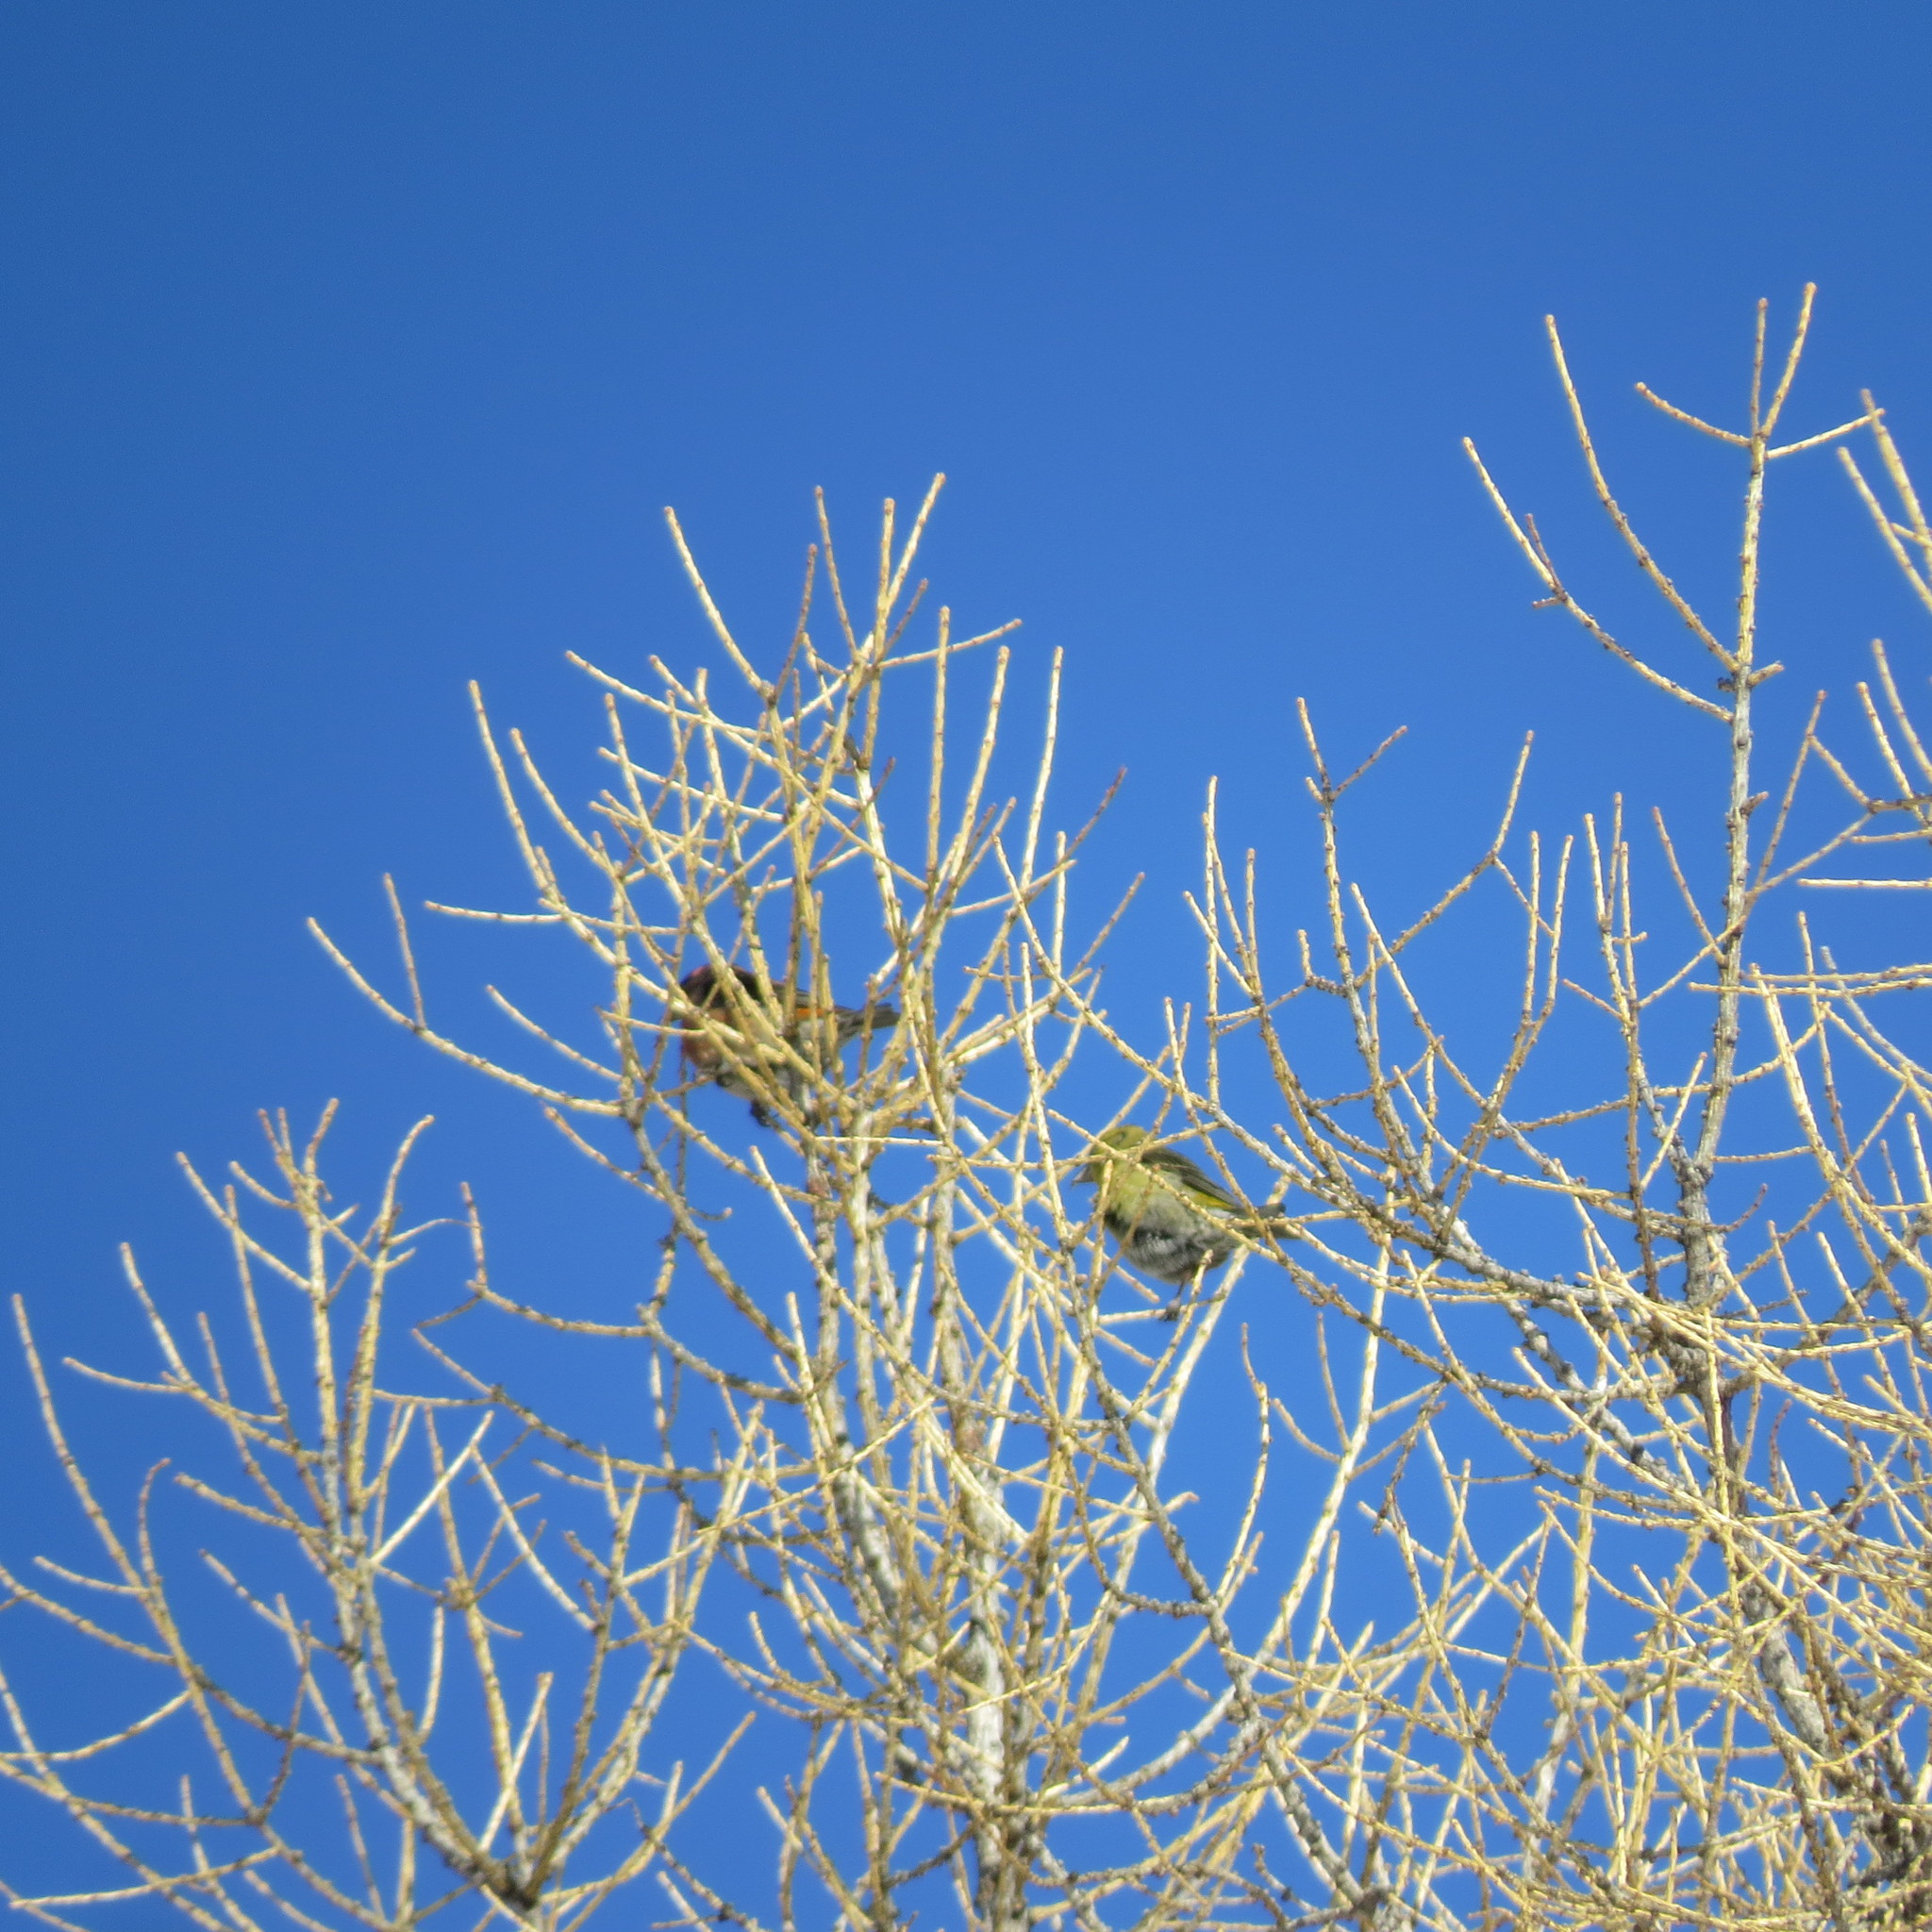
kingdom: Animalia
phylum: Chordata
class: Aves
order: Passeriformes
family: Fringillidae
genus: Loxia
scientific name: Loxia curvirostra
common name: Red crossbill
